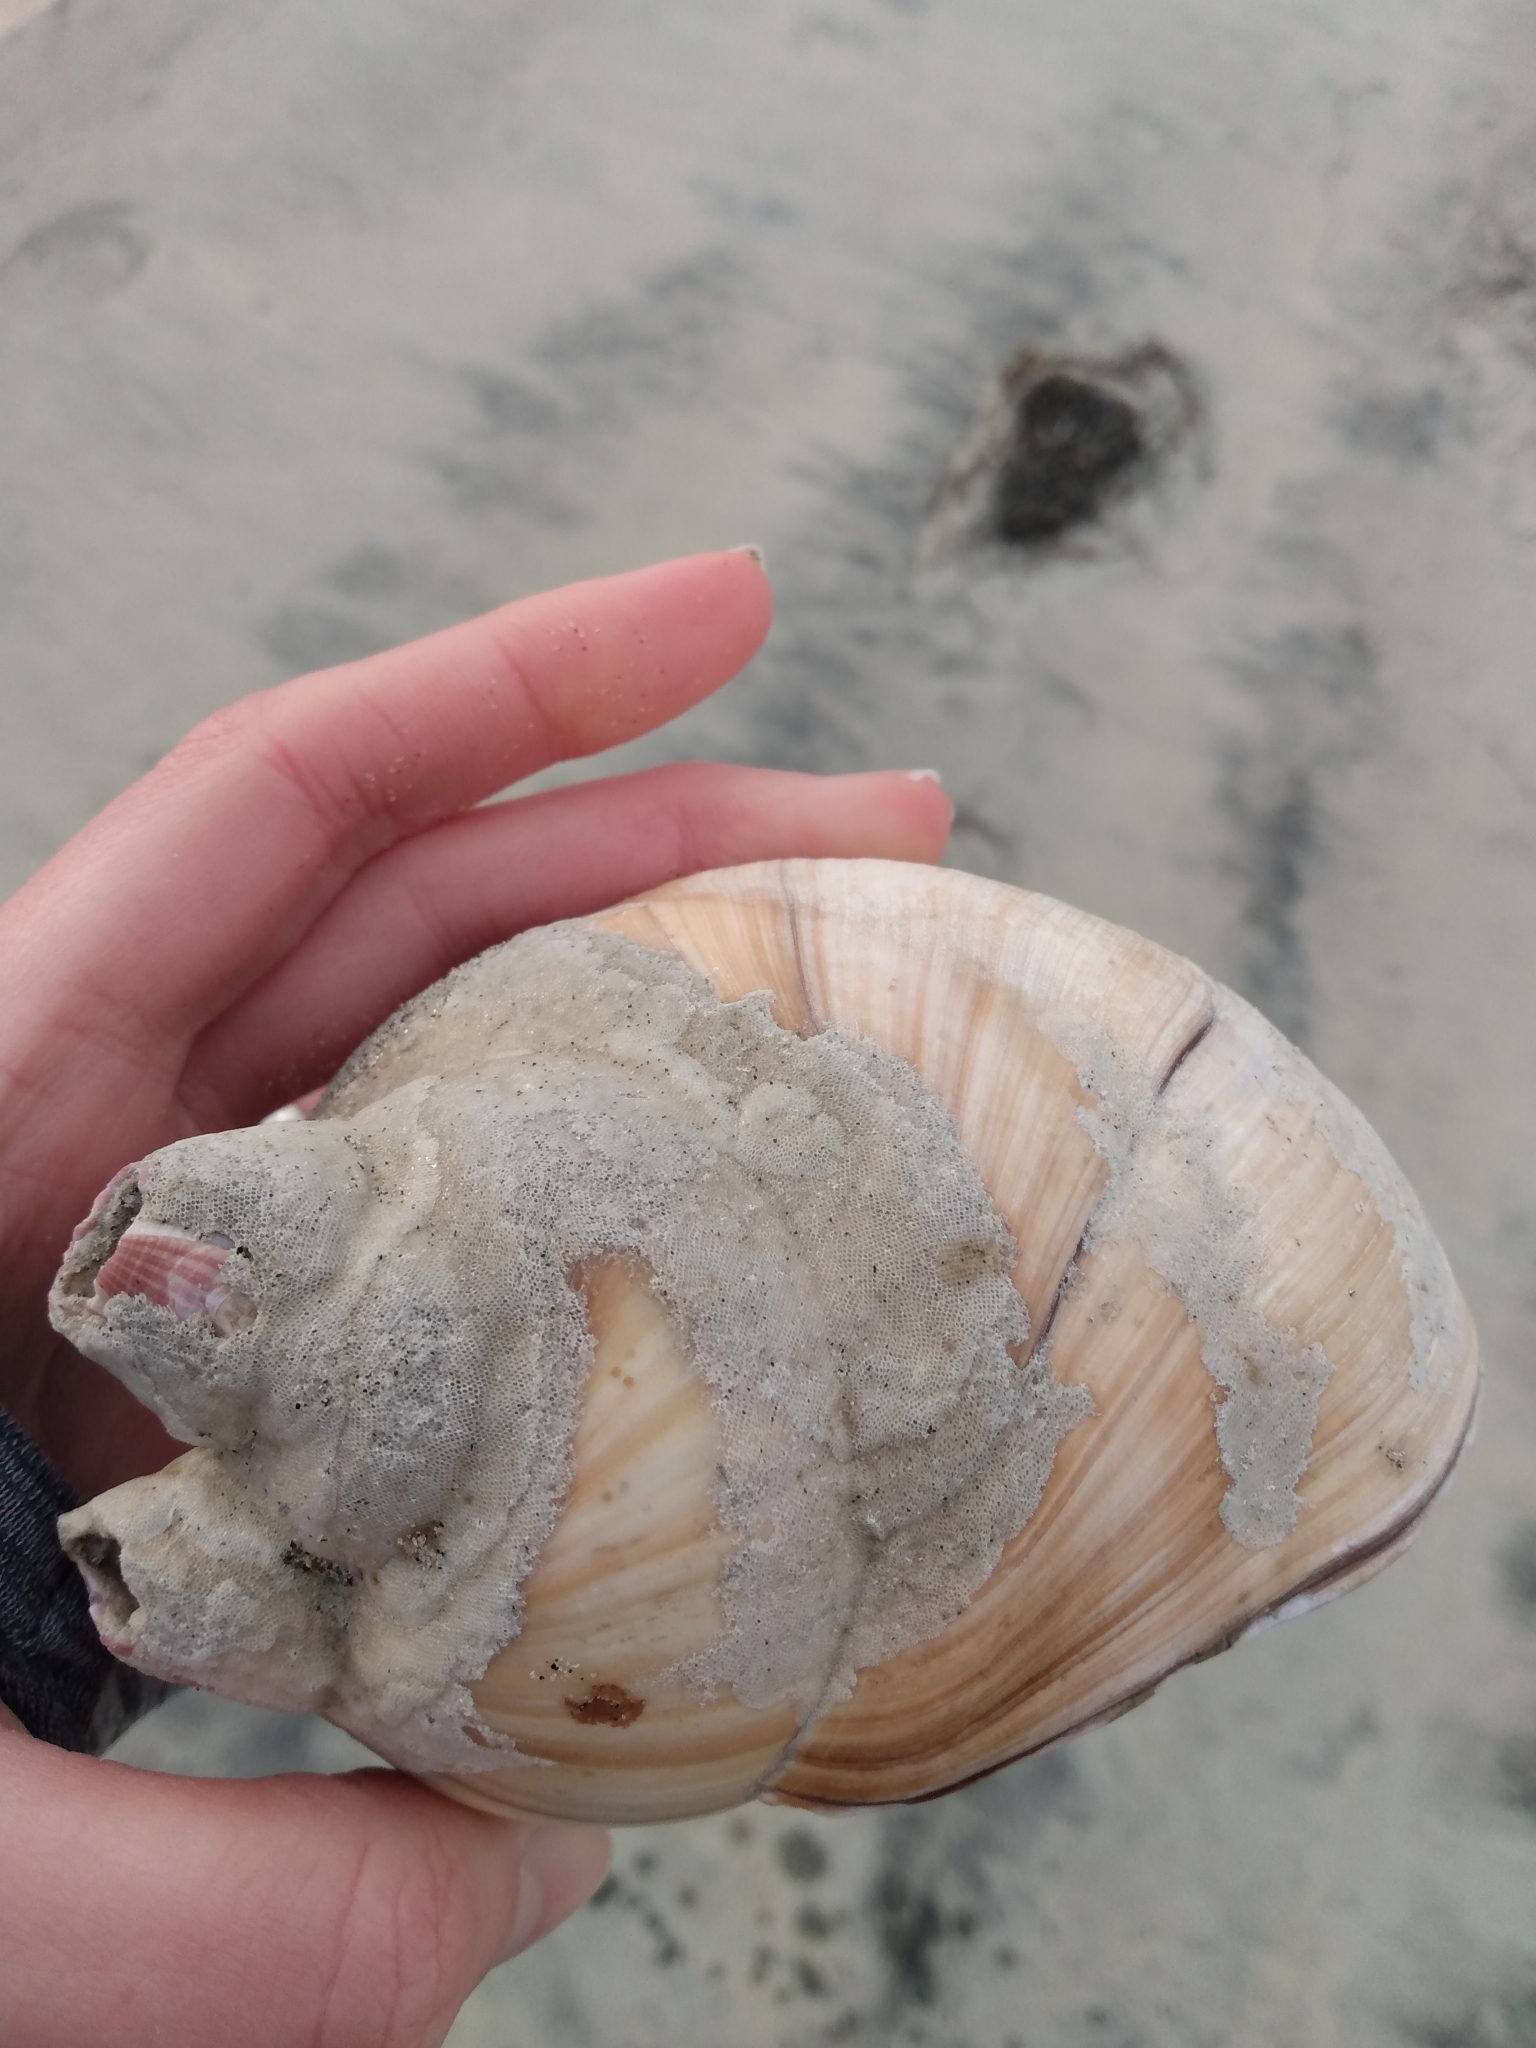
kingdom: Animalia
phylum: Mollusca
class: Gastropoda
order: Littorinimorpha
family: Naticidae
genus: Neverita
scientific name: Neverita lewisii
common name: Lewis' moonsnail
